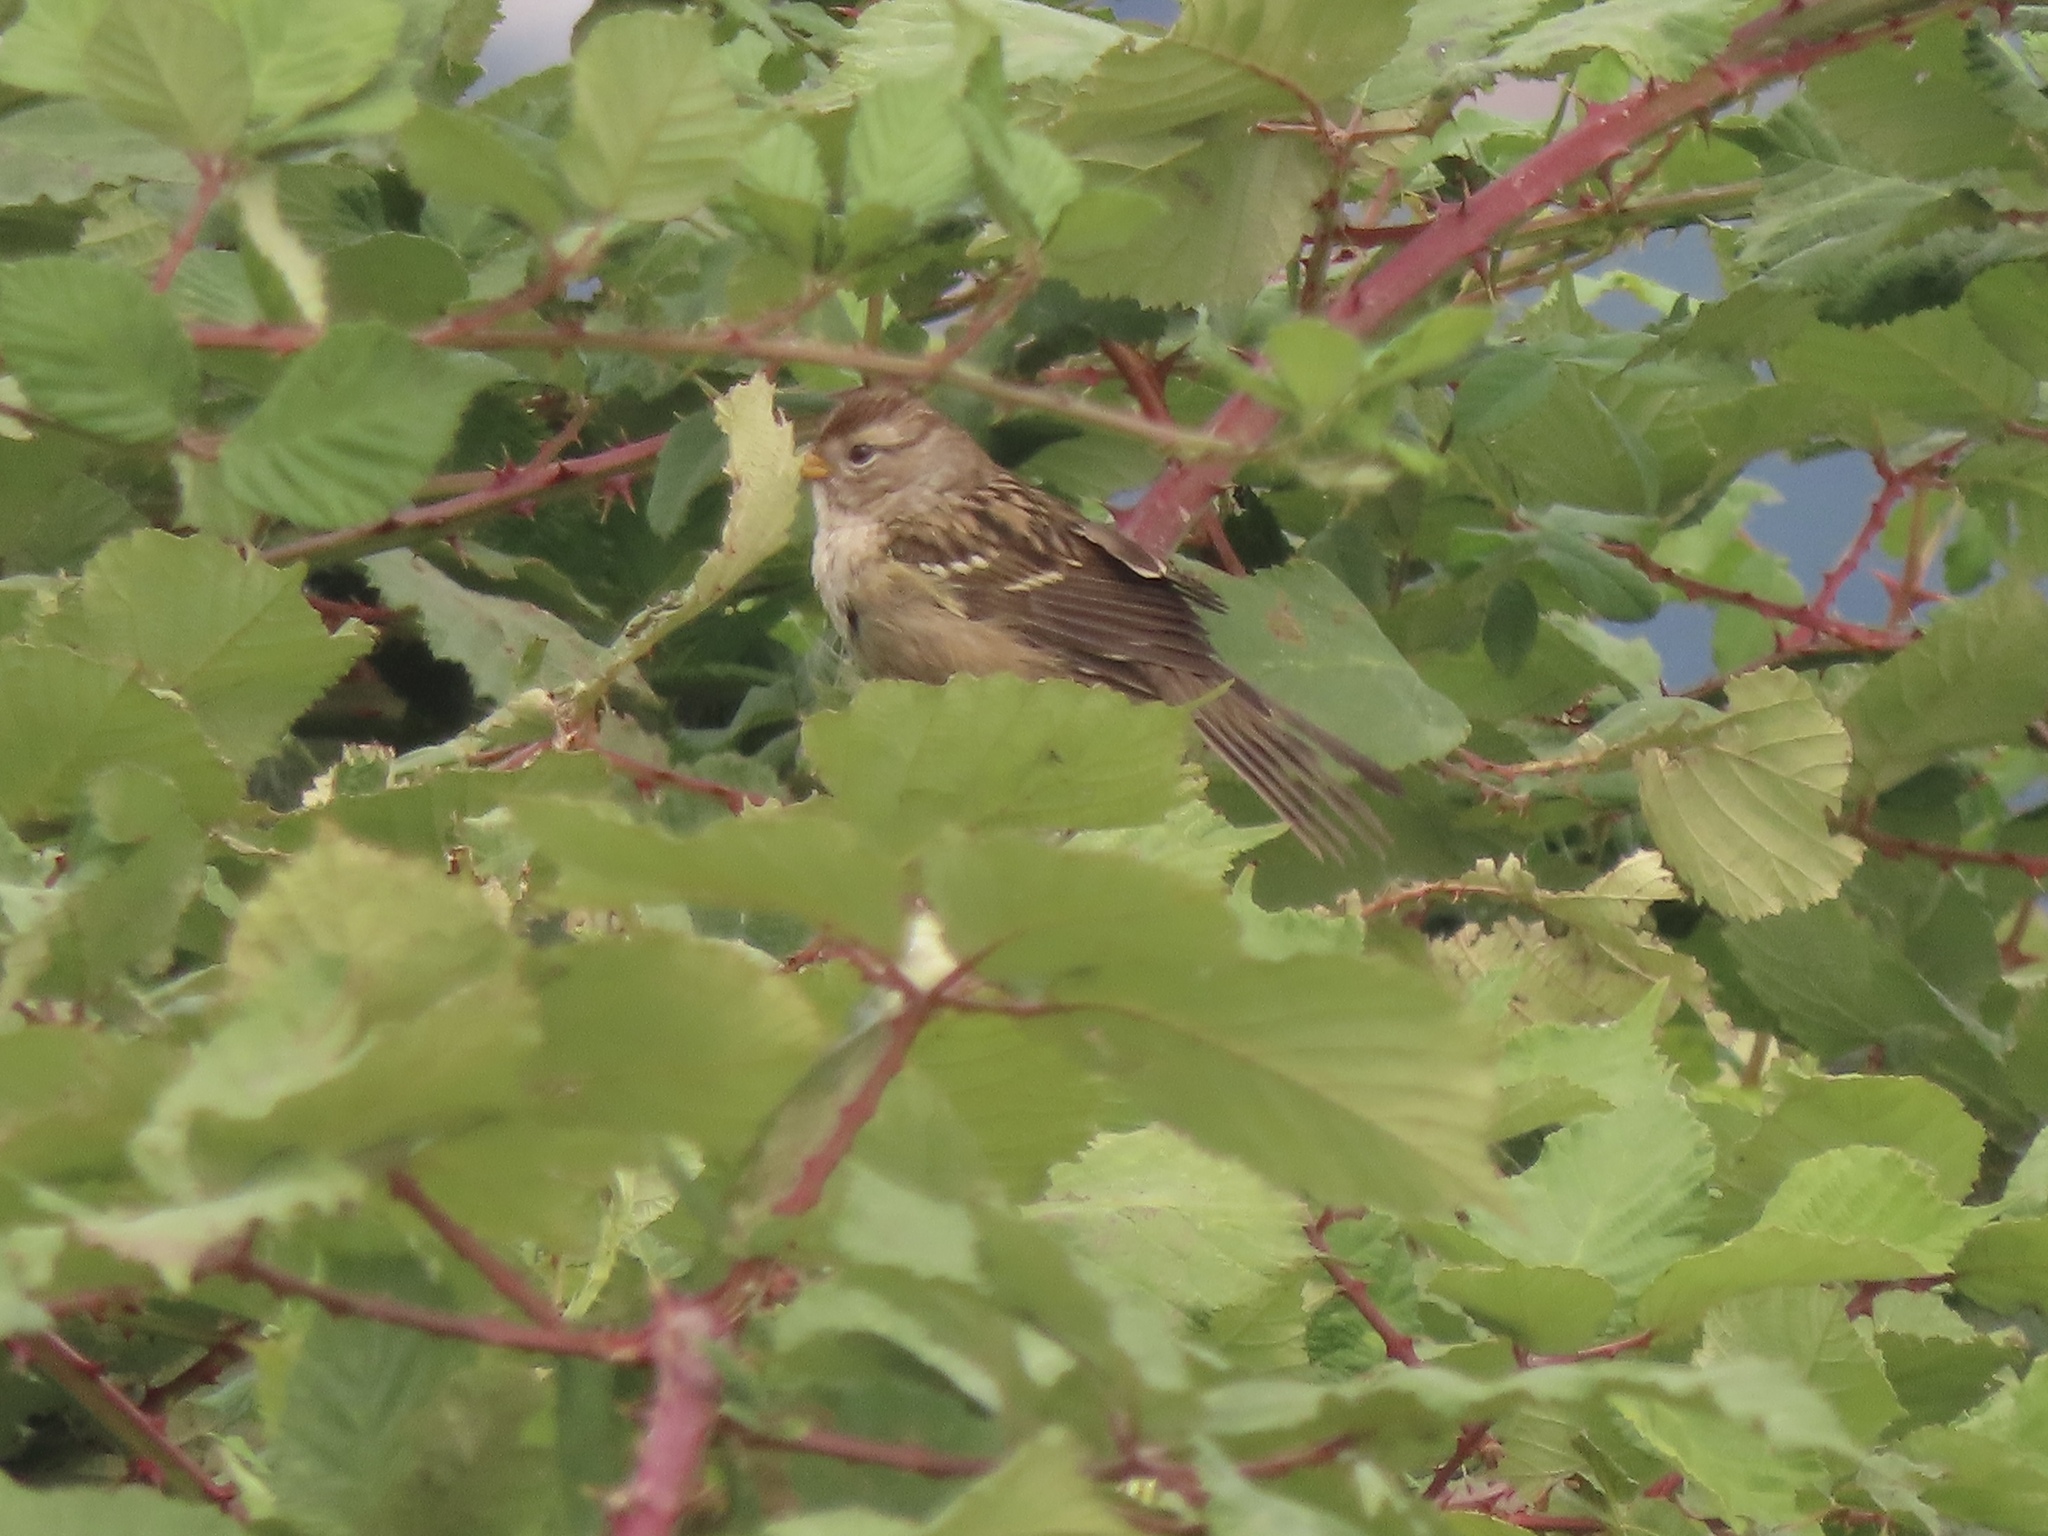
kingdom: Animalia
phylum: Chordata
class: Aves
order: Passeriformes
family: Passerellidae
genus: Zonotrichia
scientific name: Zonotrichia leucophrys
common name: White-crowned sparrow
